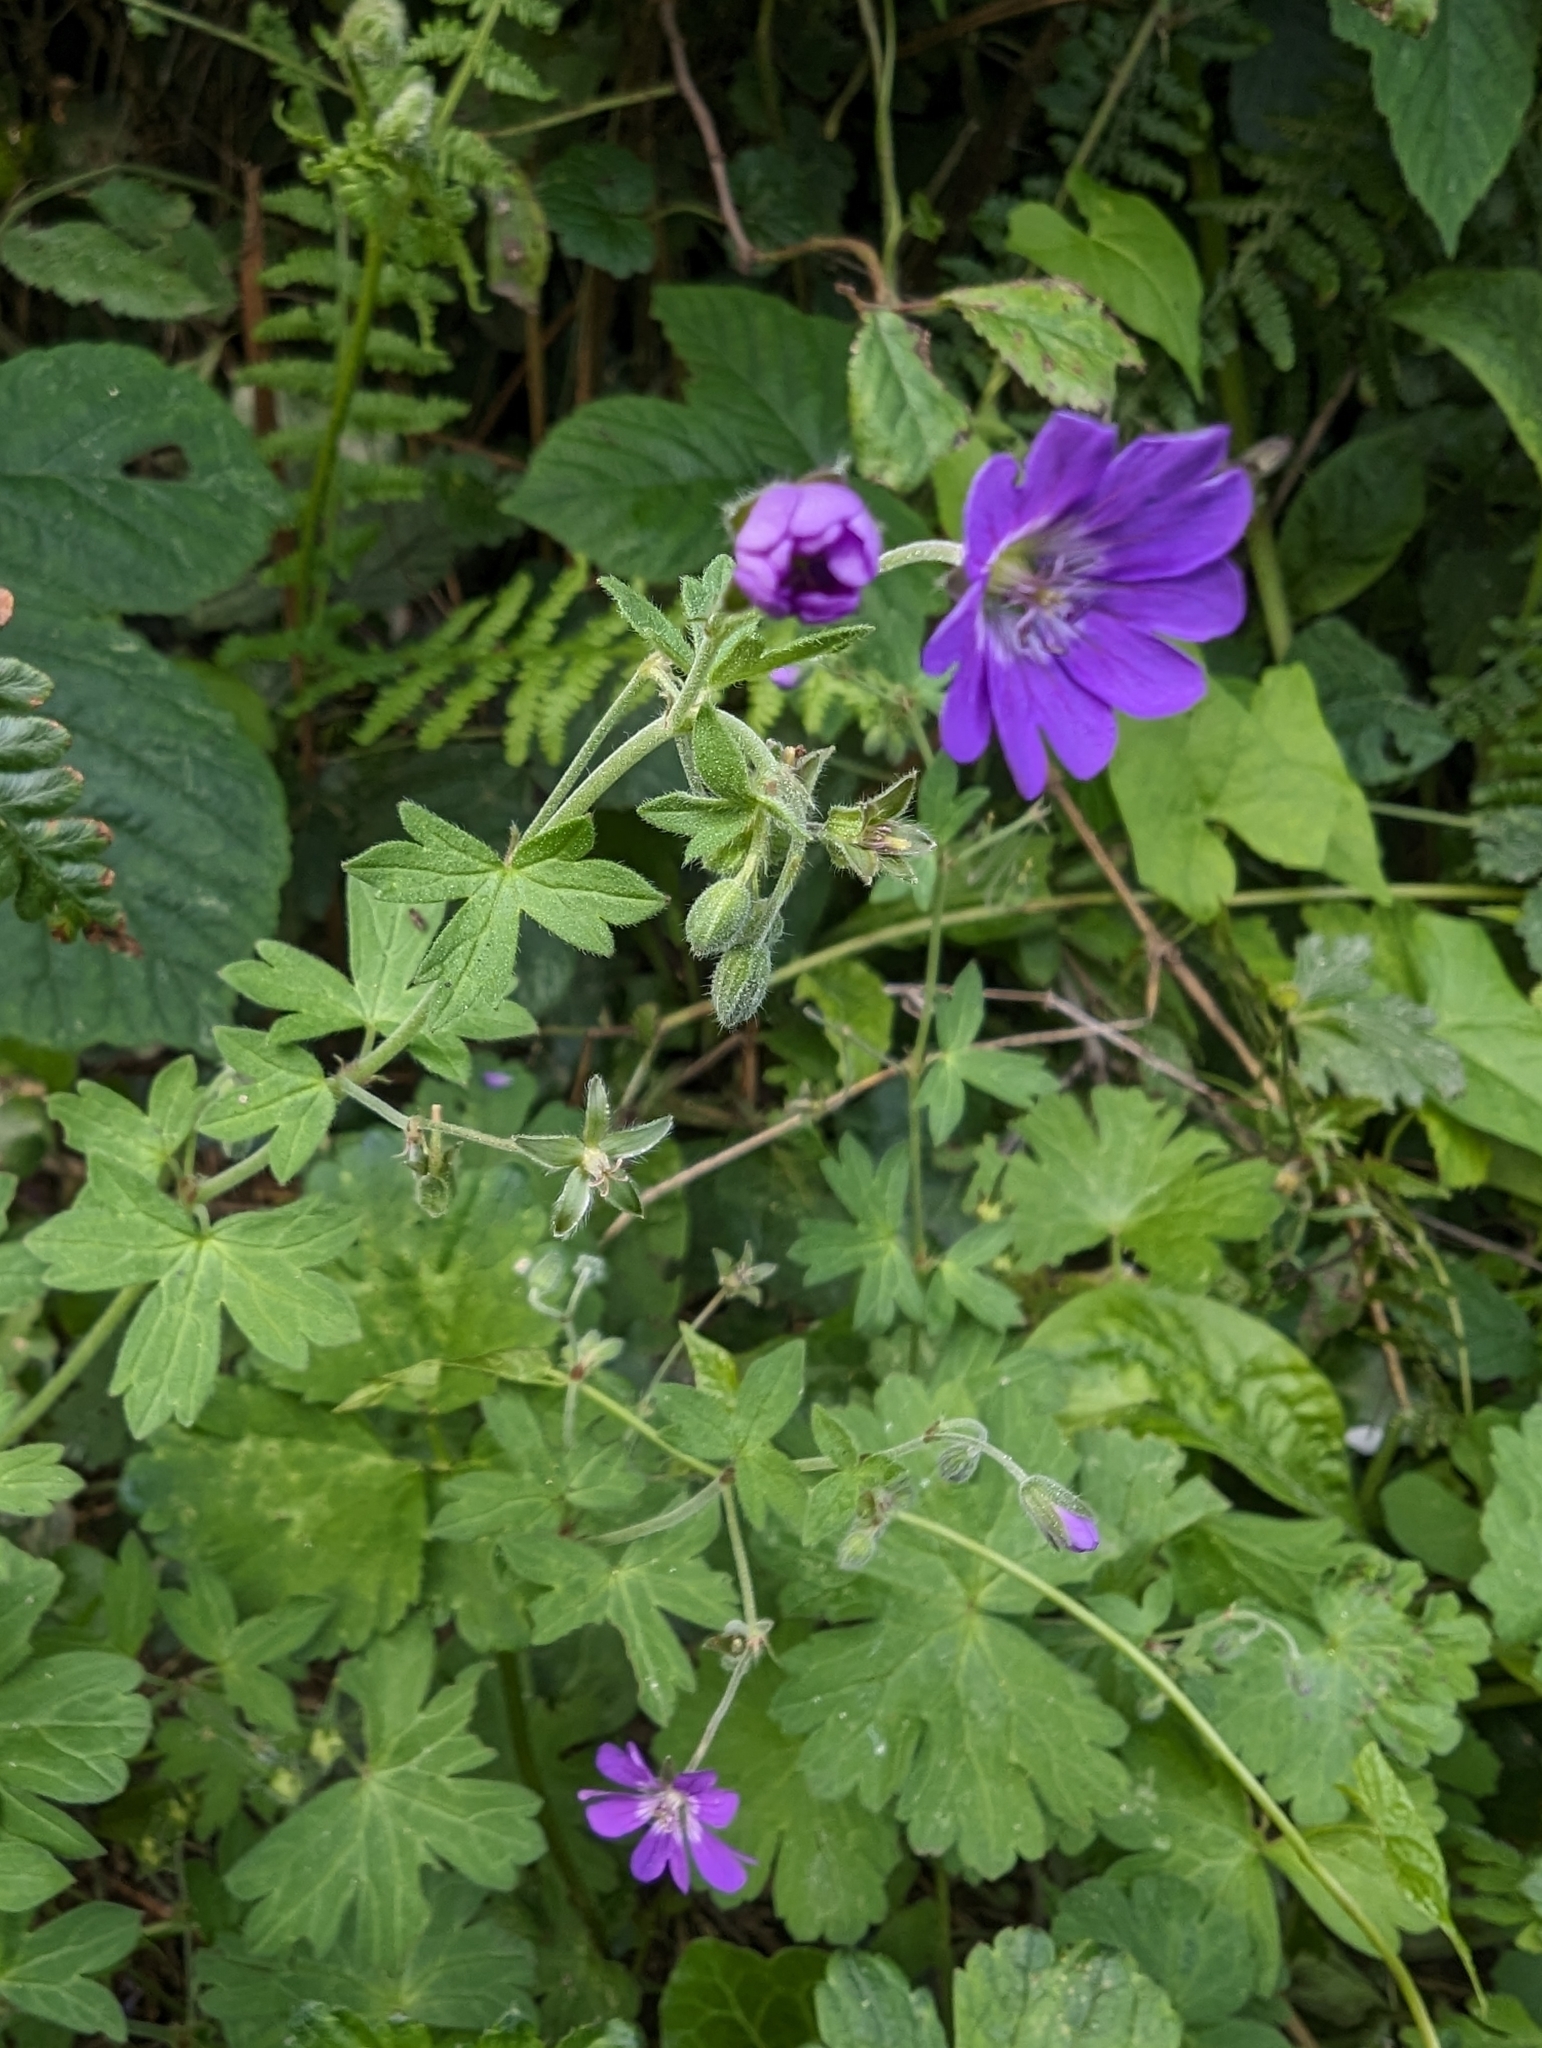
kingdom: Plantae
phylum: Tracheophyta
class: Magnoliopsida
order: Geraniales
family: Geraniaceae
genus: Geranium
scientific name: Geranium pyrenaicum
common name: Hedgerow crane's-bill
